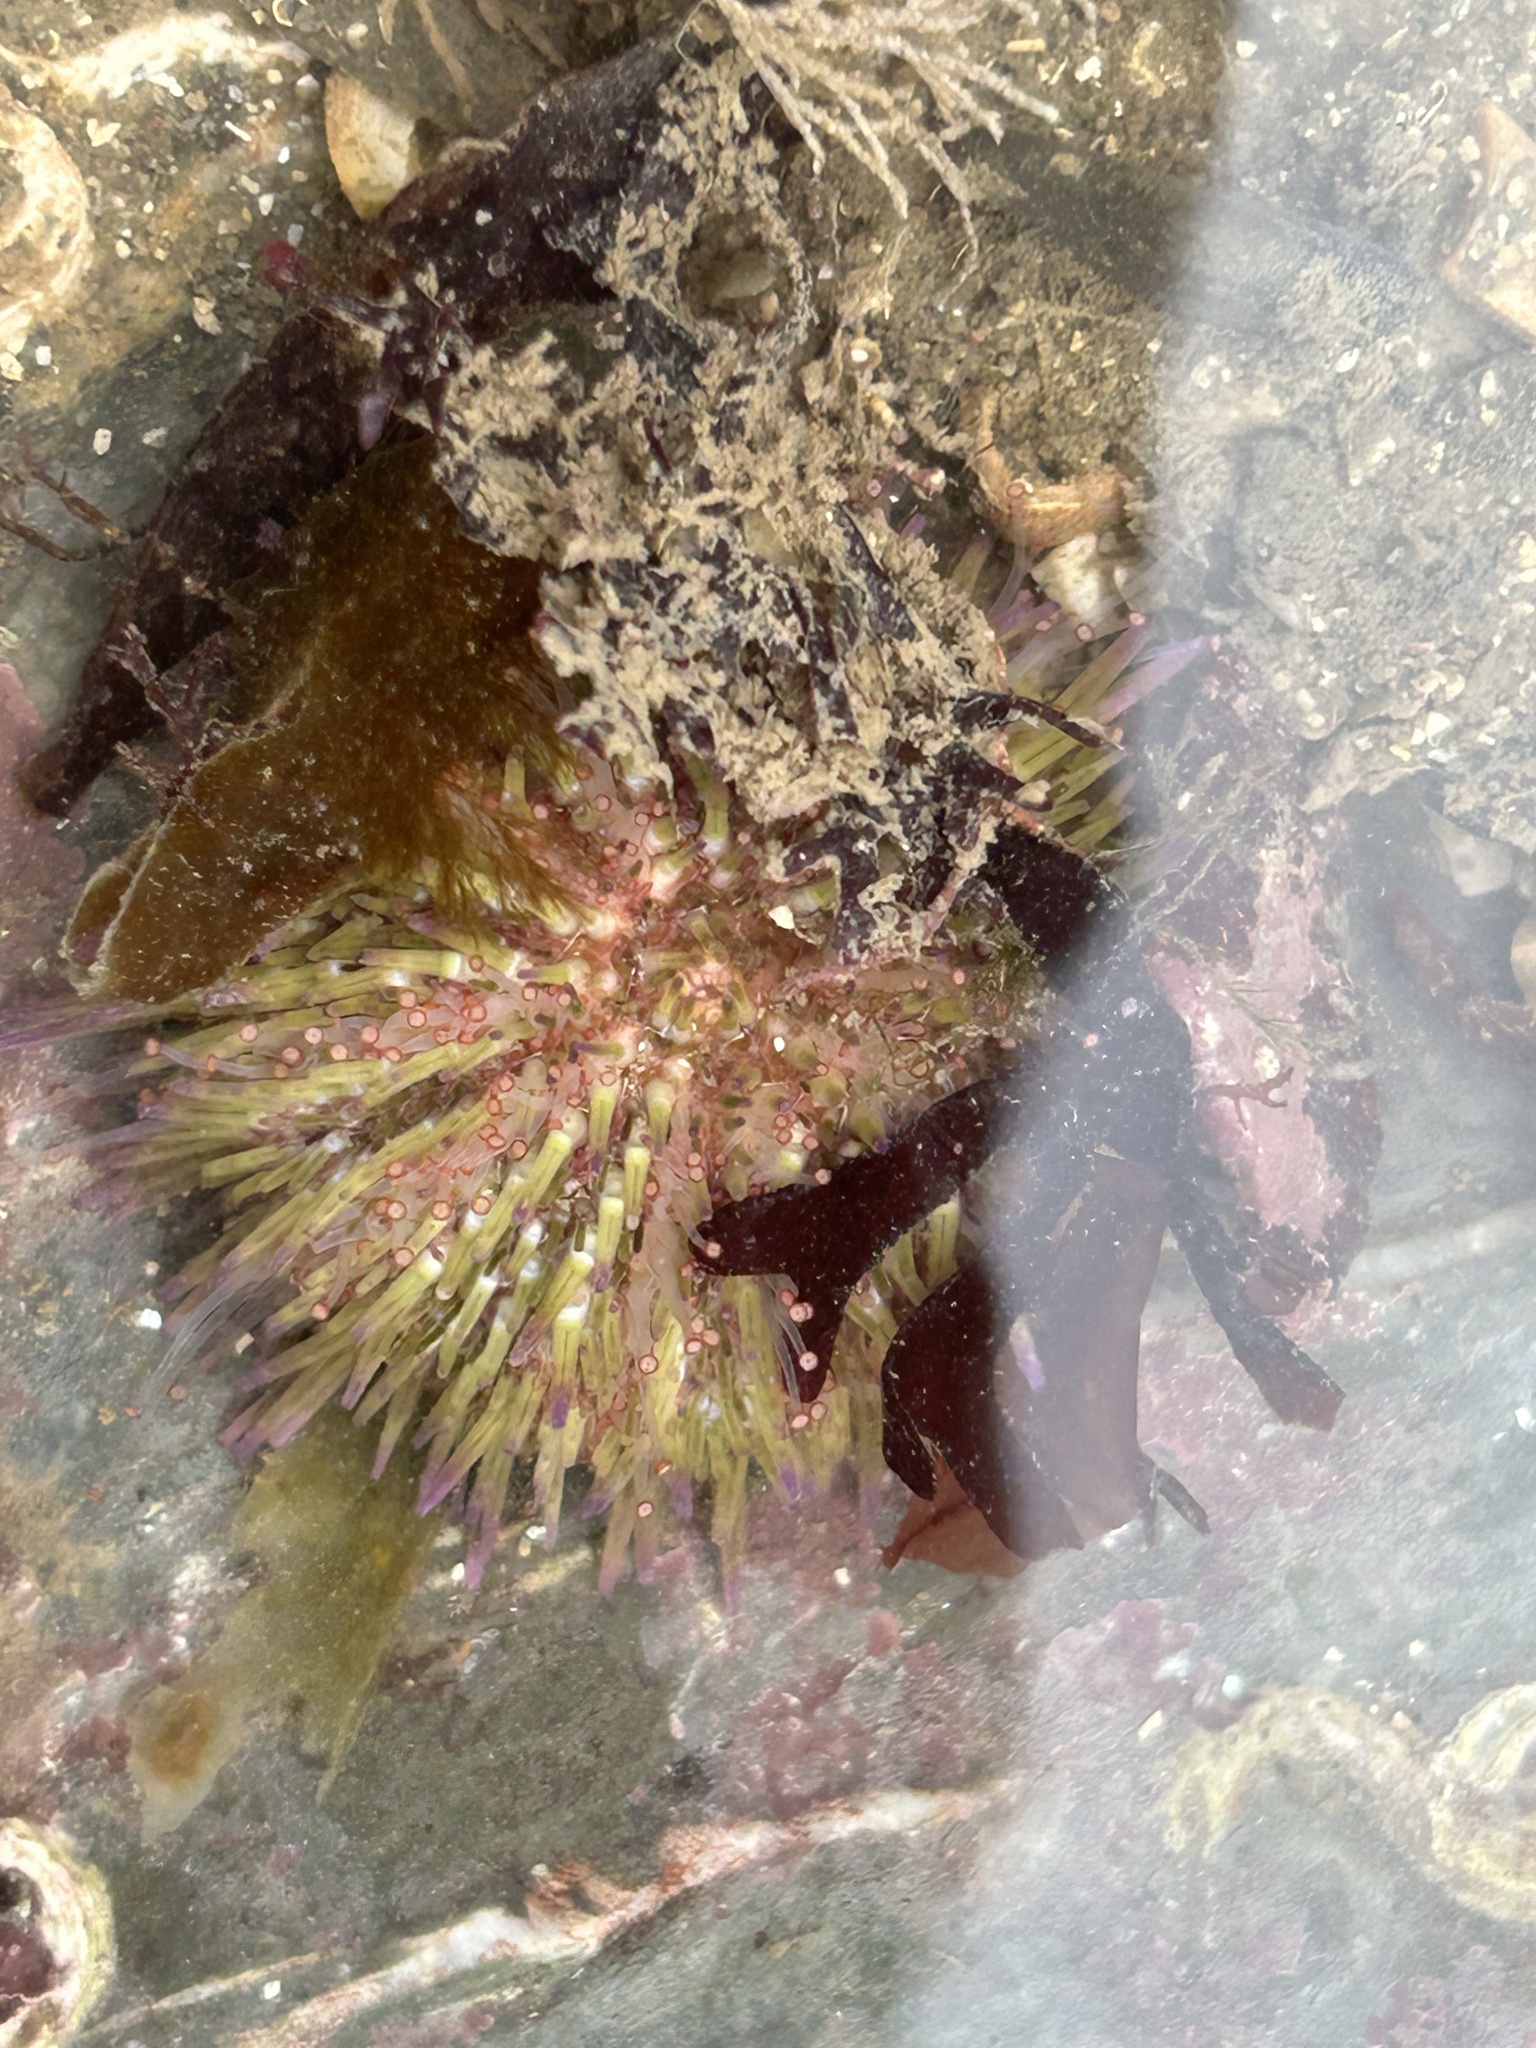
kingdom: Animalia
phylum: Echinodermata
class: Echinoidea
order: Camarodonta
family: Parechinidae
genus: Psammechinus
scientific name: Psammechinus miliaris
